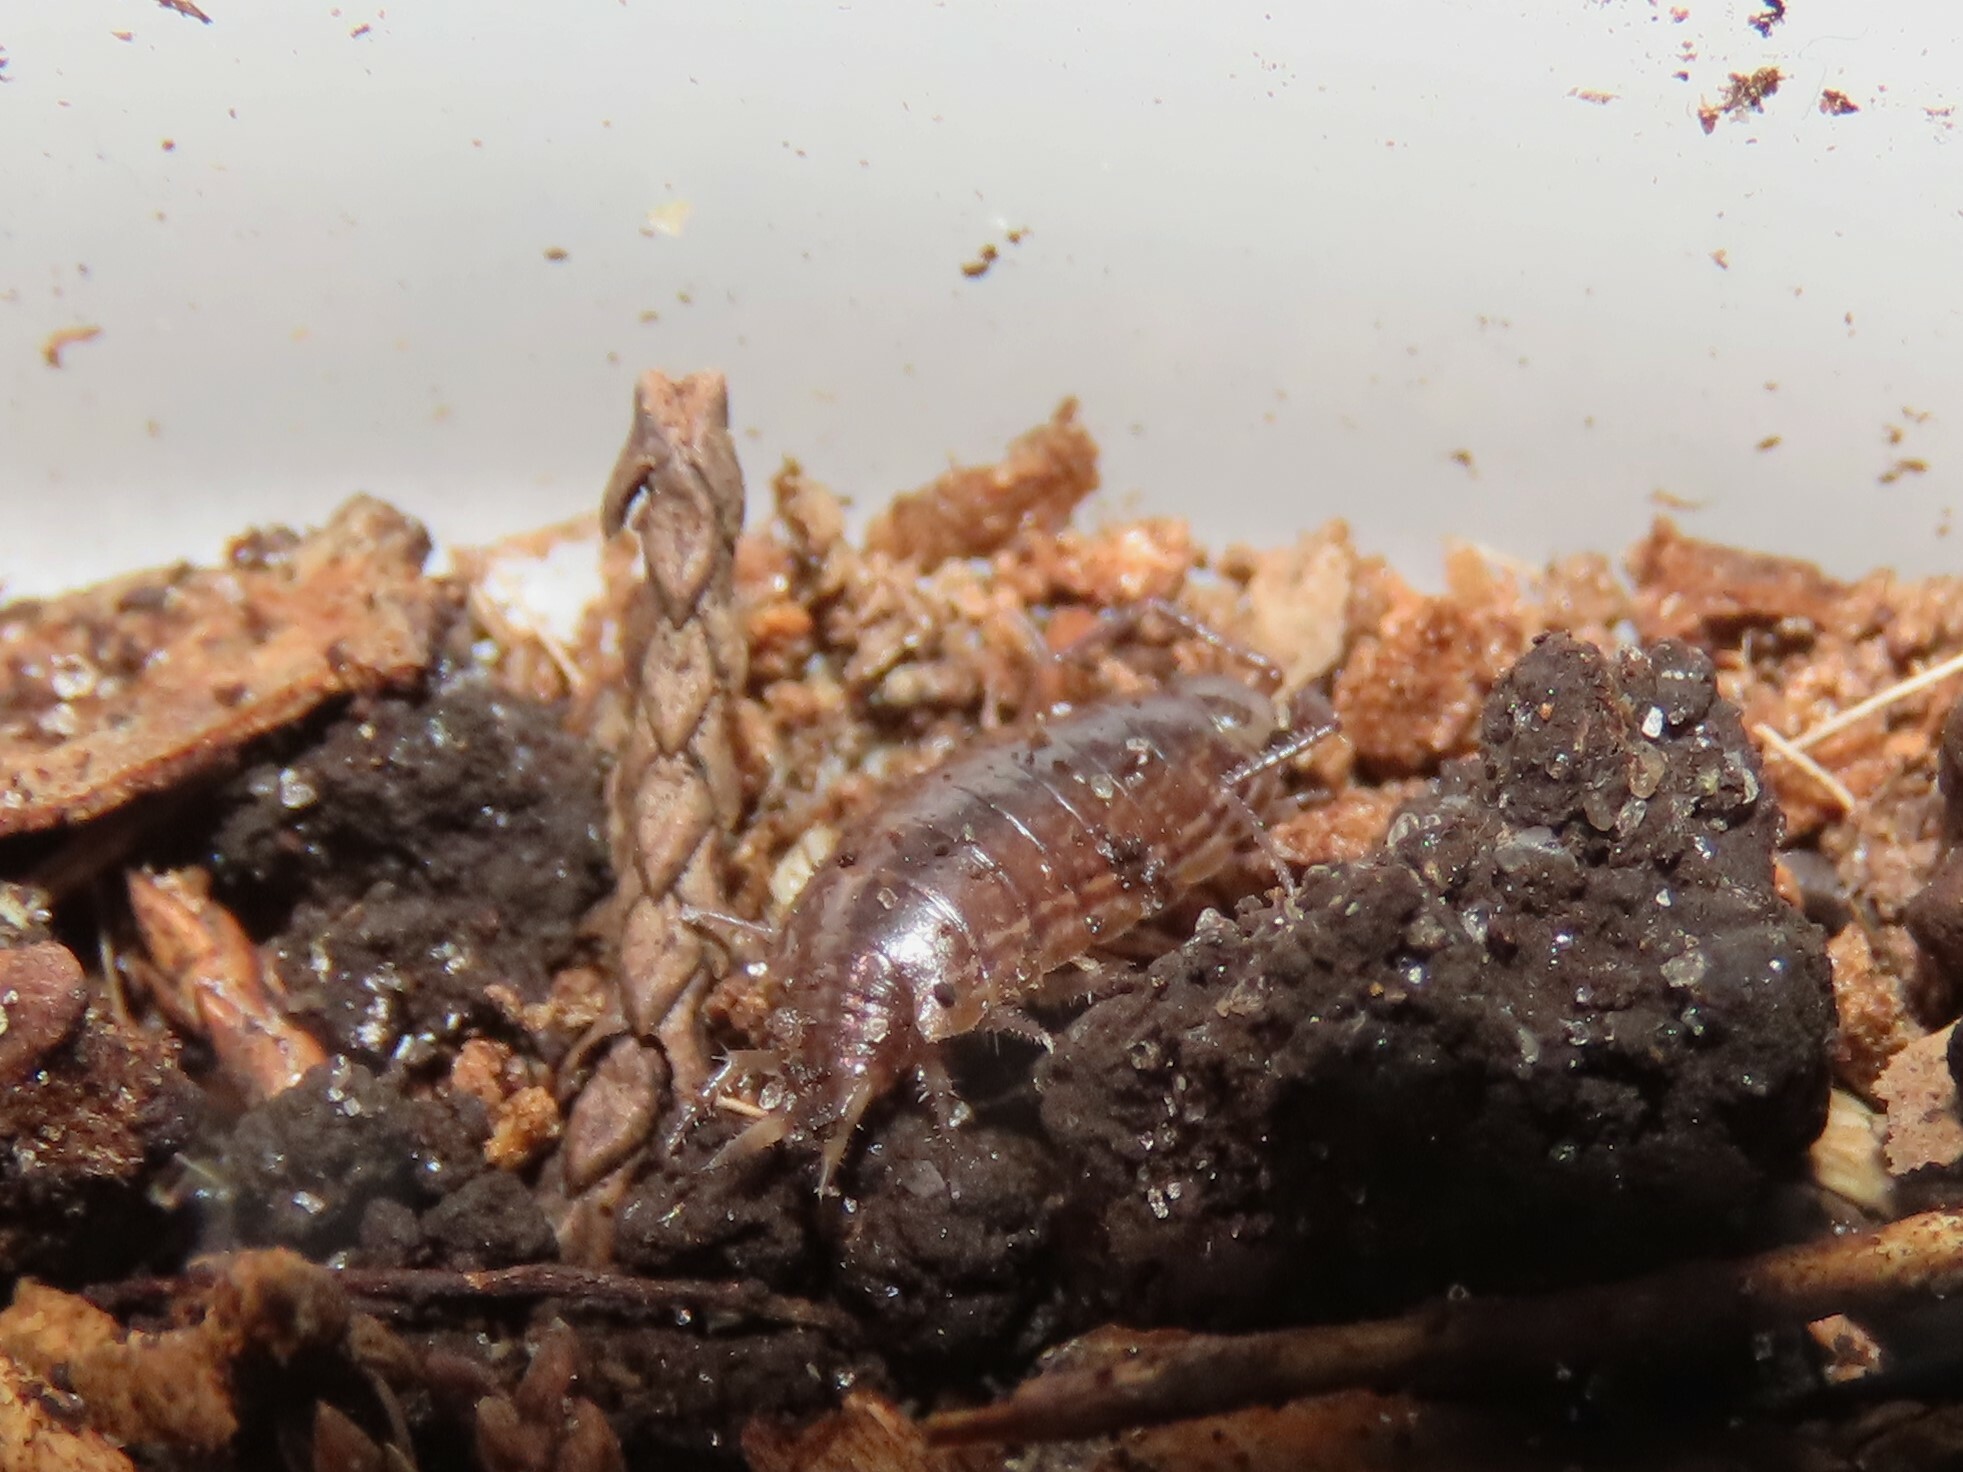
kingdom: Animalia
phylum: Arthropoda
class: Malacostraca
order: Isopoda
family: Philosciidae
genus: Atlantoscia
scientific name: Atlantoscia floridana
